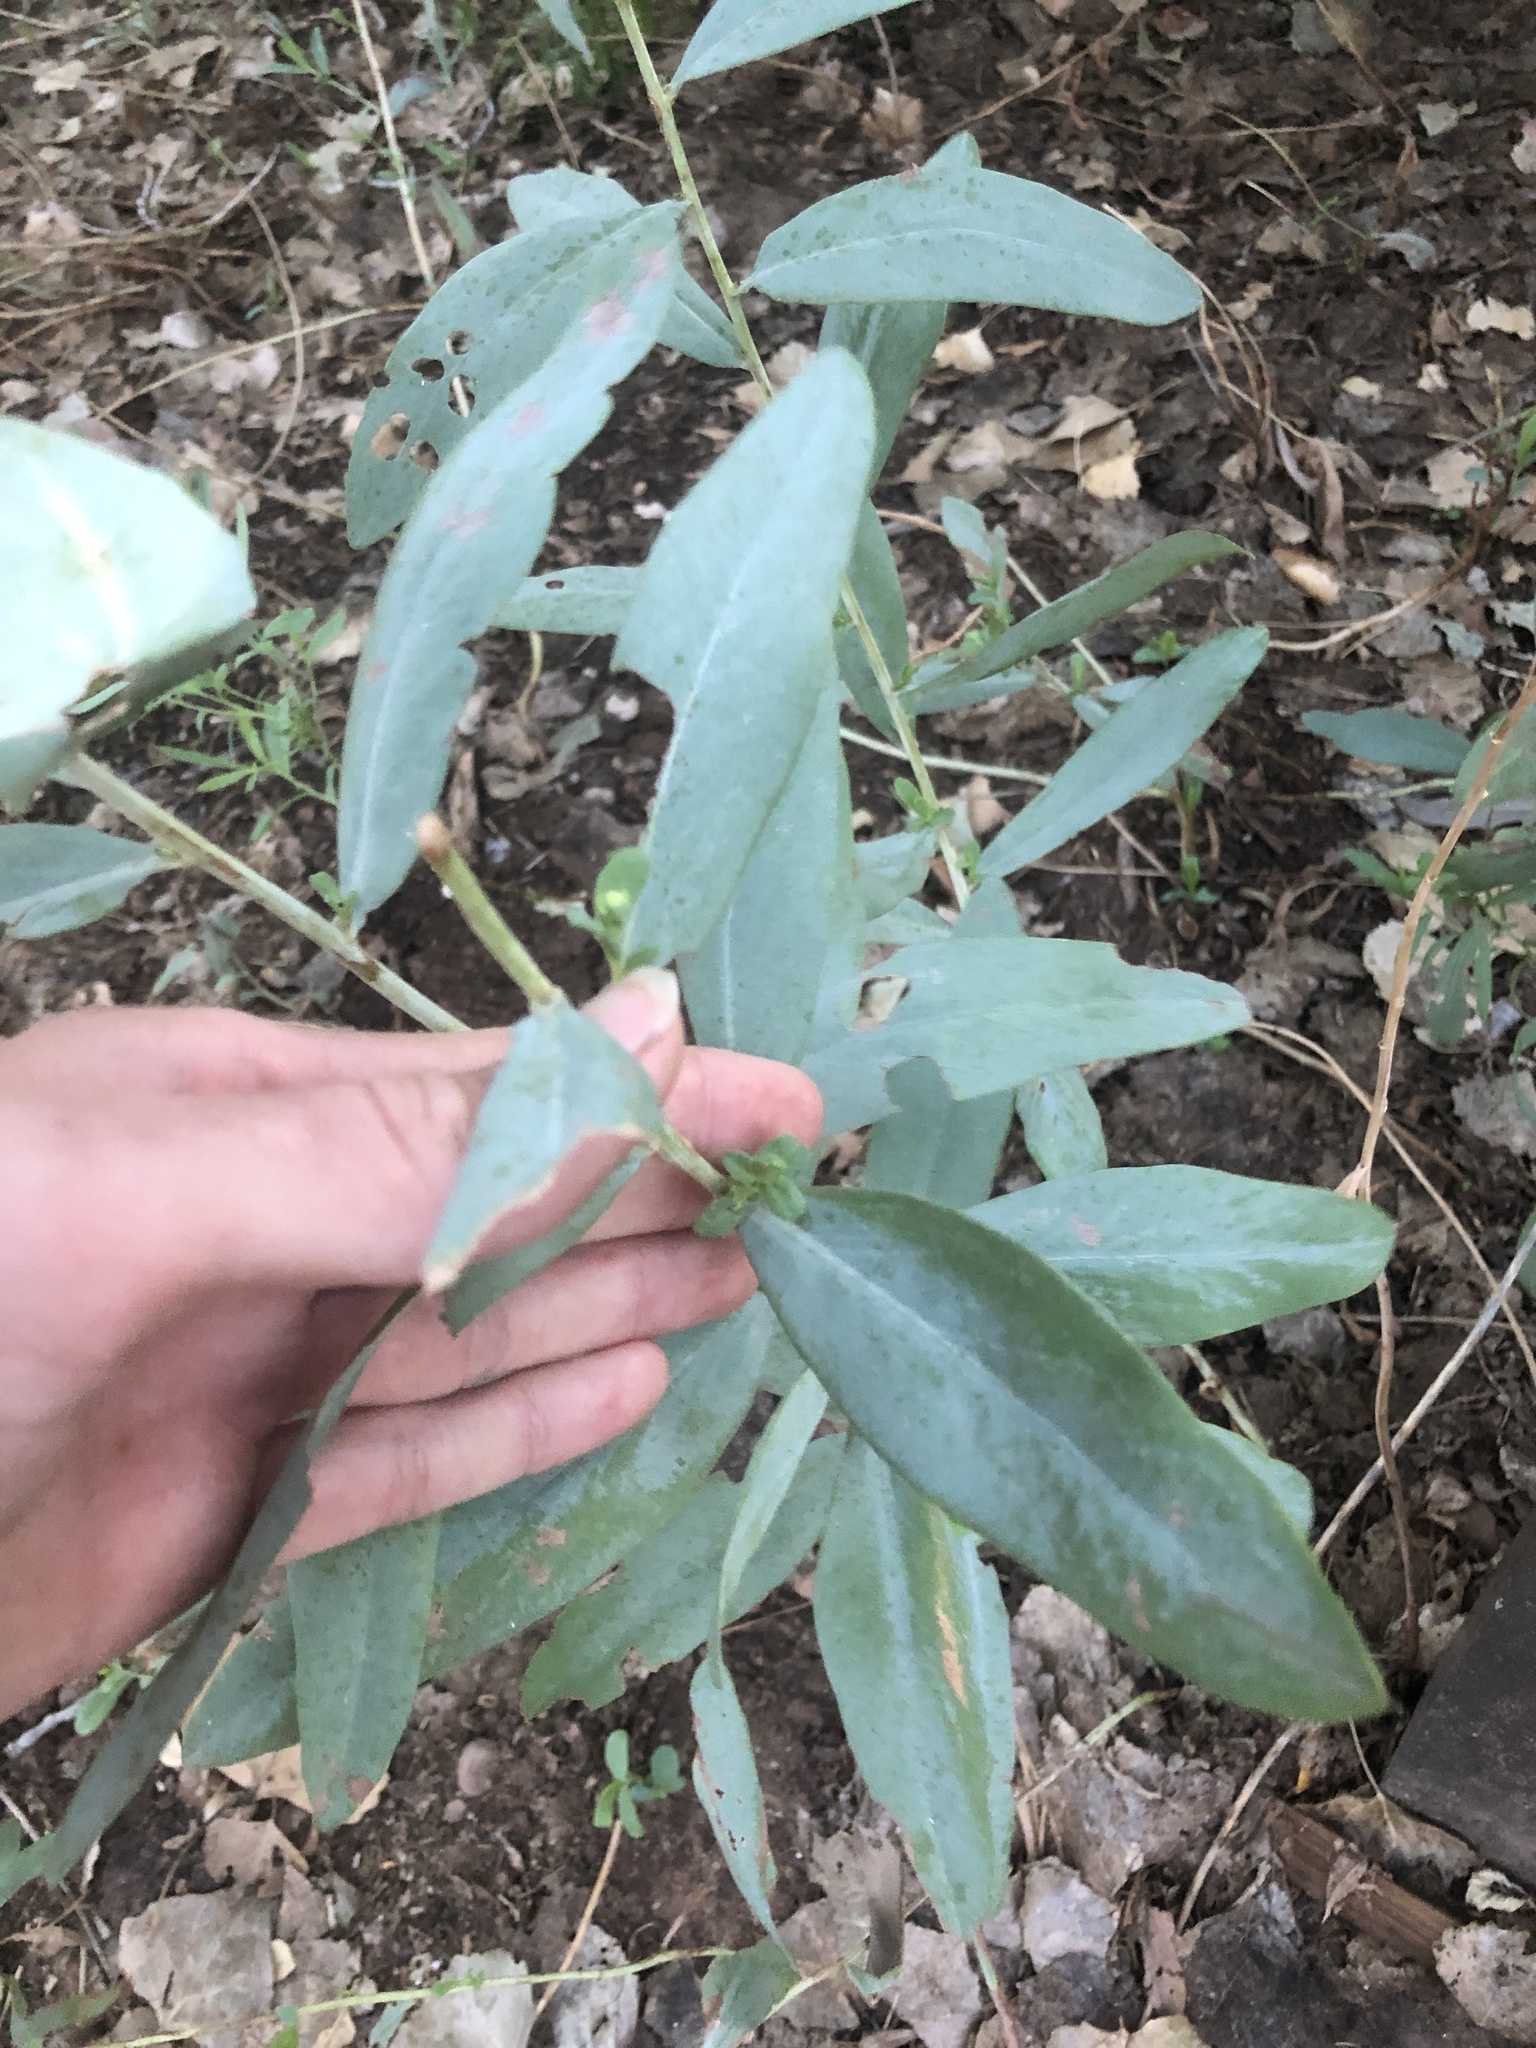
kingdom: Plantae
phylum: Tracheophyta
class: Magnoliopsida
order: Asterales
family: Asteraceae
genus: Eurybia
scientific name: Eurybia glauca
